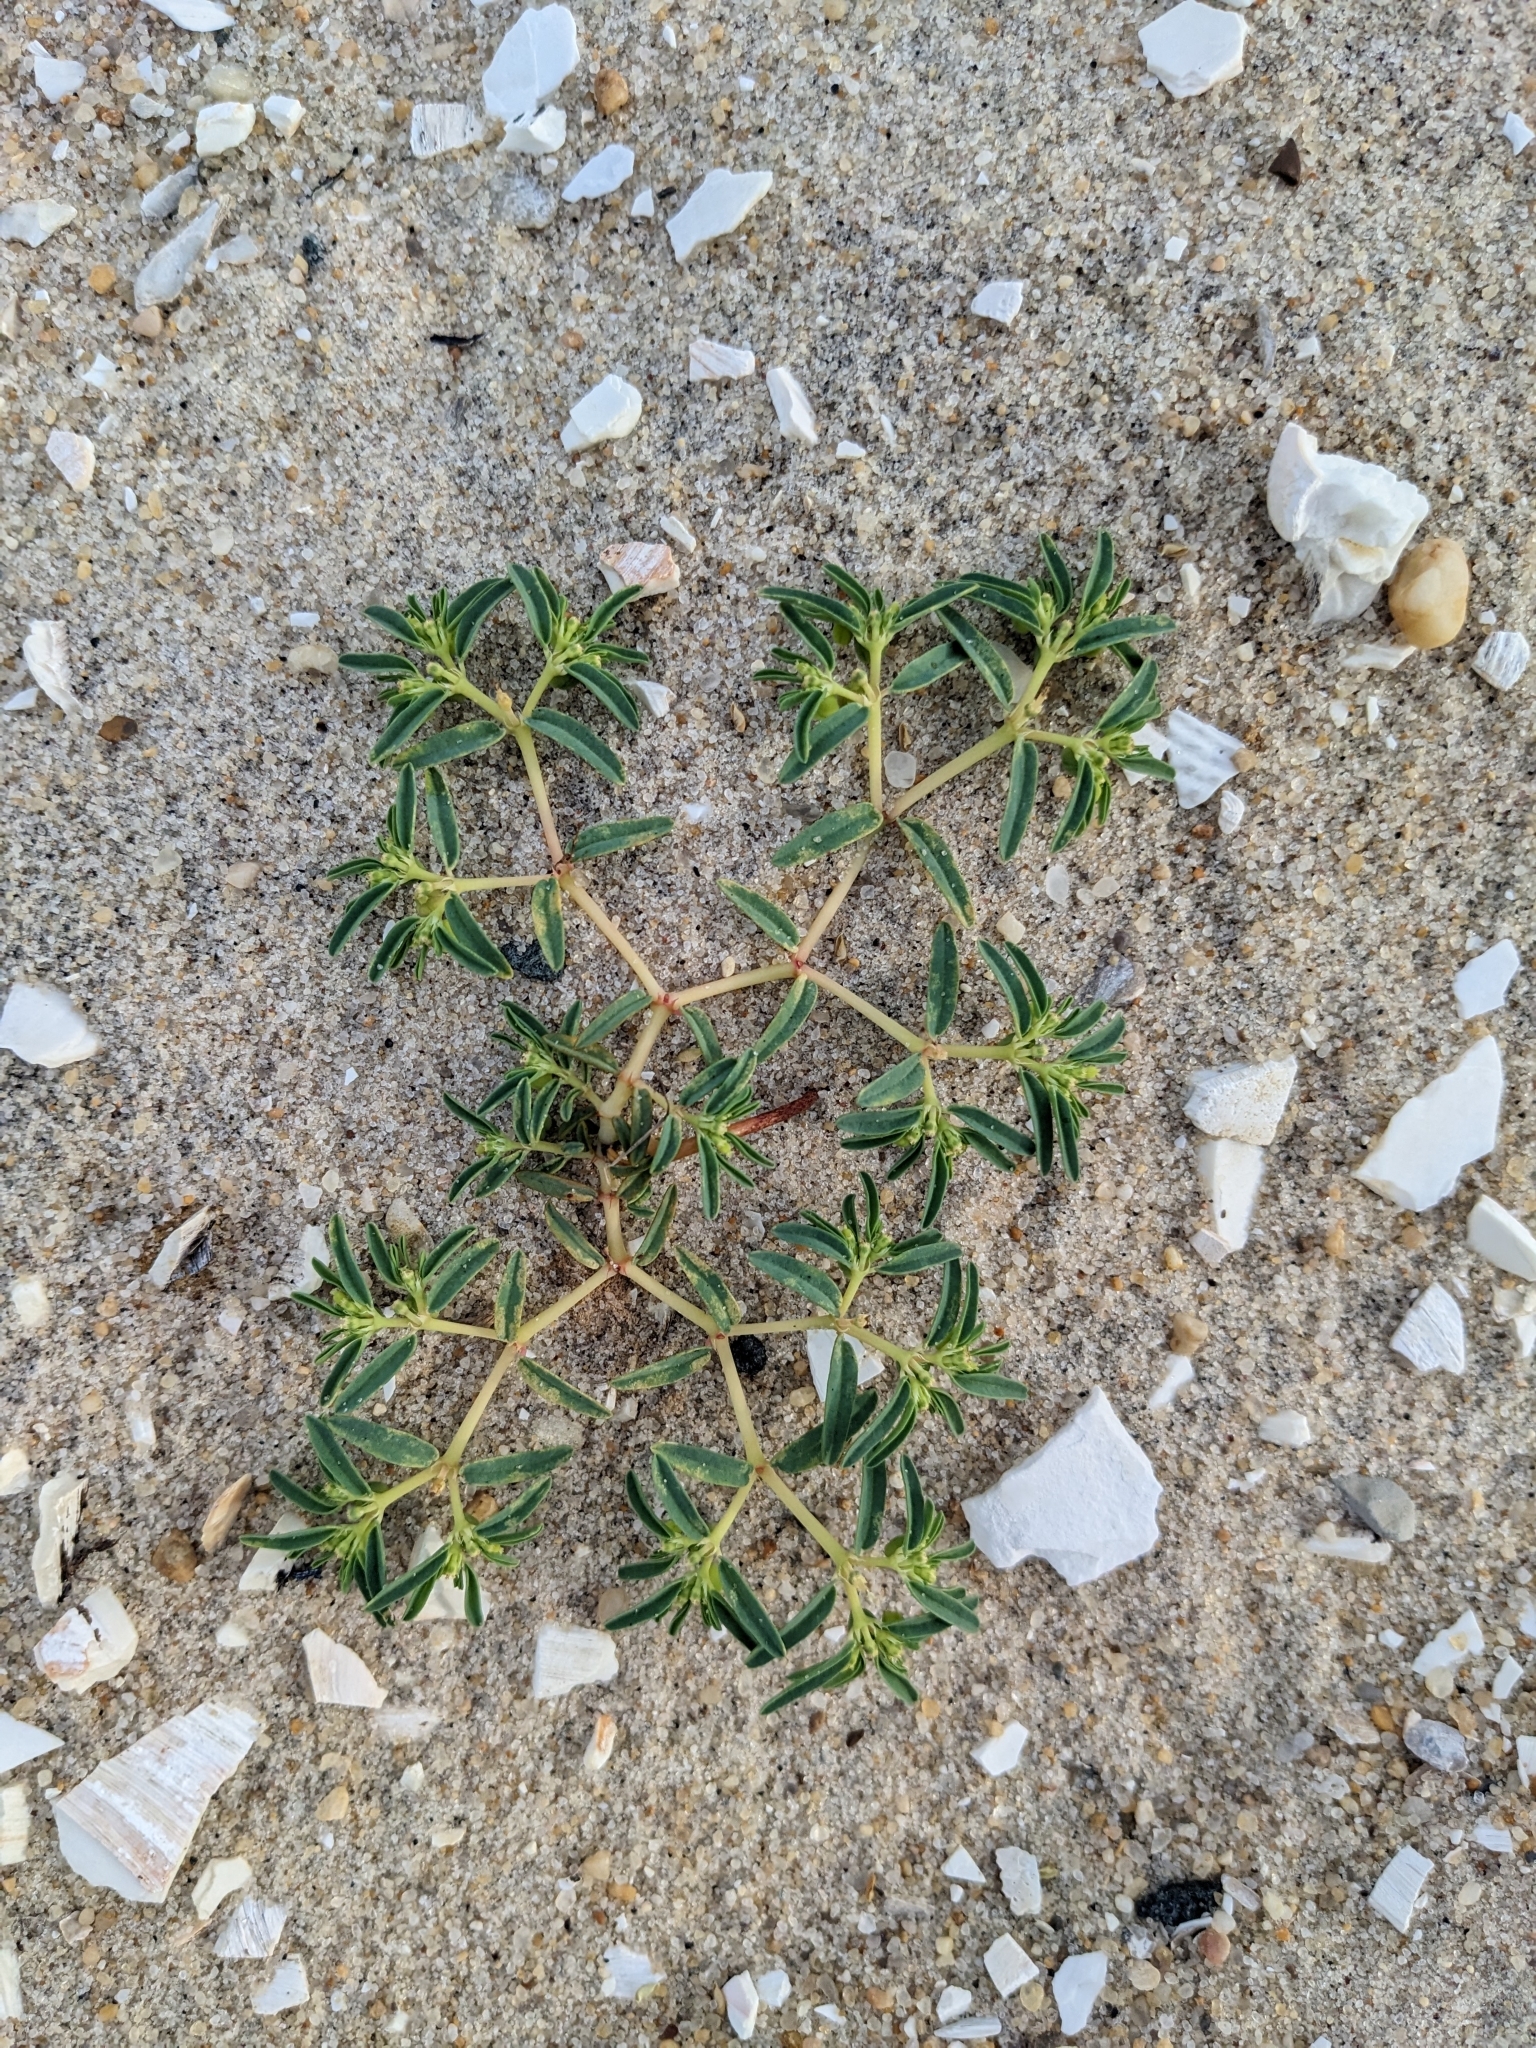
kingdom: Plantae
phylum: Tracheophyta
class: Magnoliopsida
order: Malpighiales
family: Euphorbiaceae
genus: Euphorbia
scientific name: Euphorbia polygonifolia
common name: Knotweed spurge
